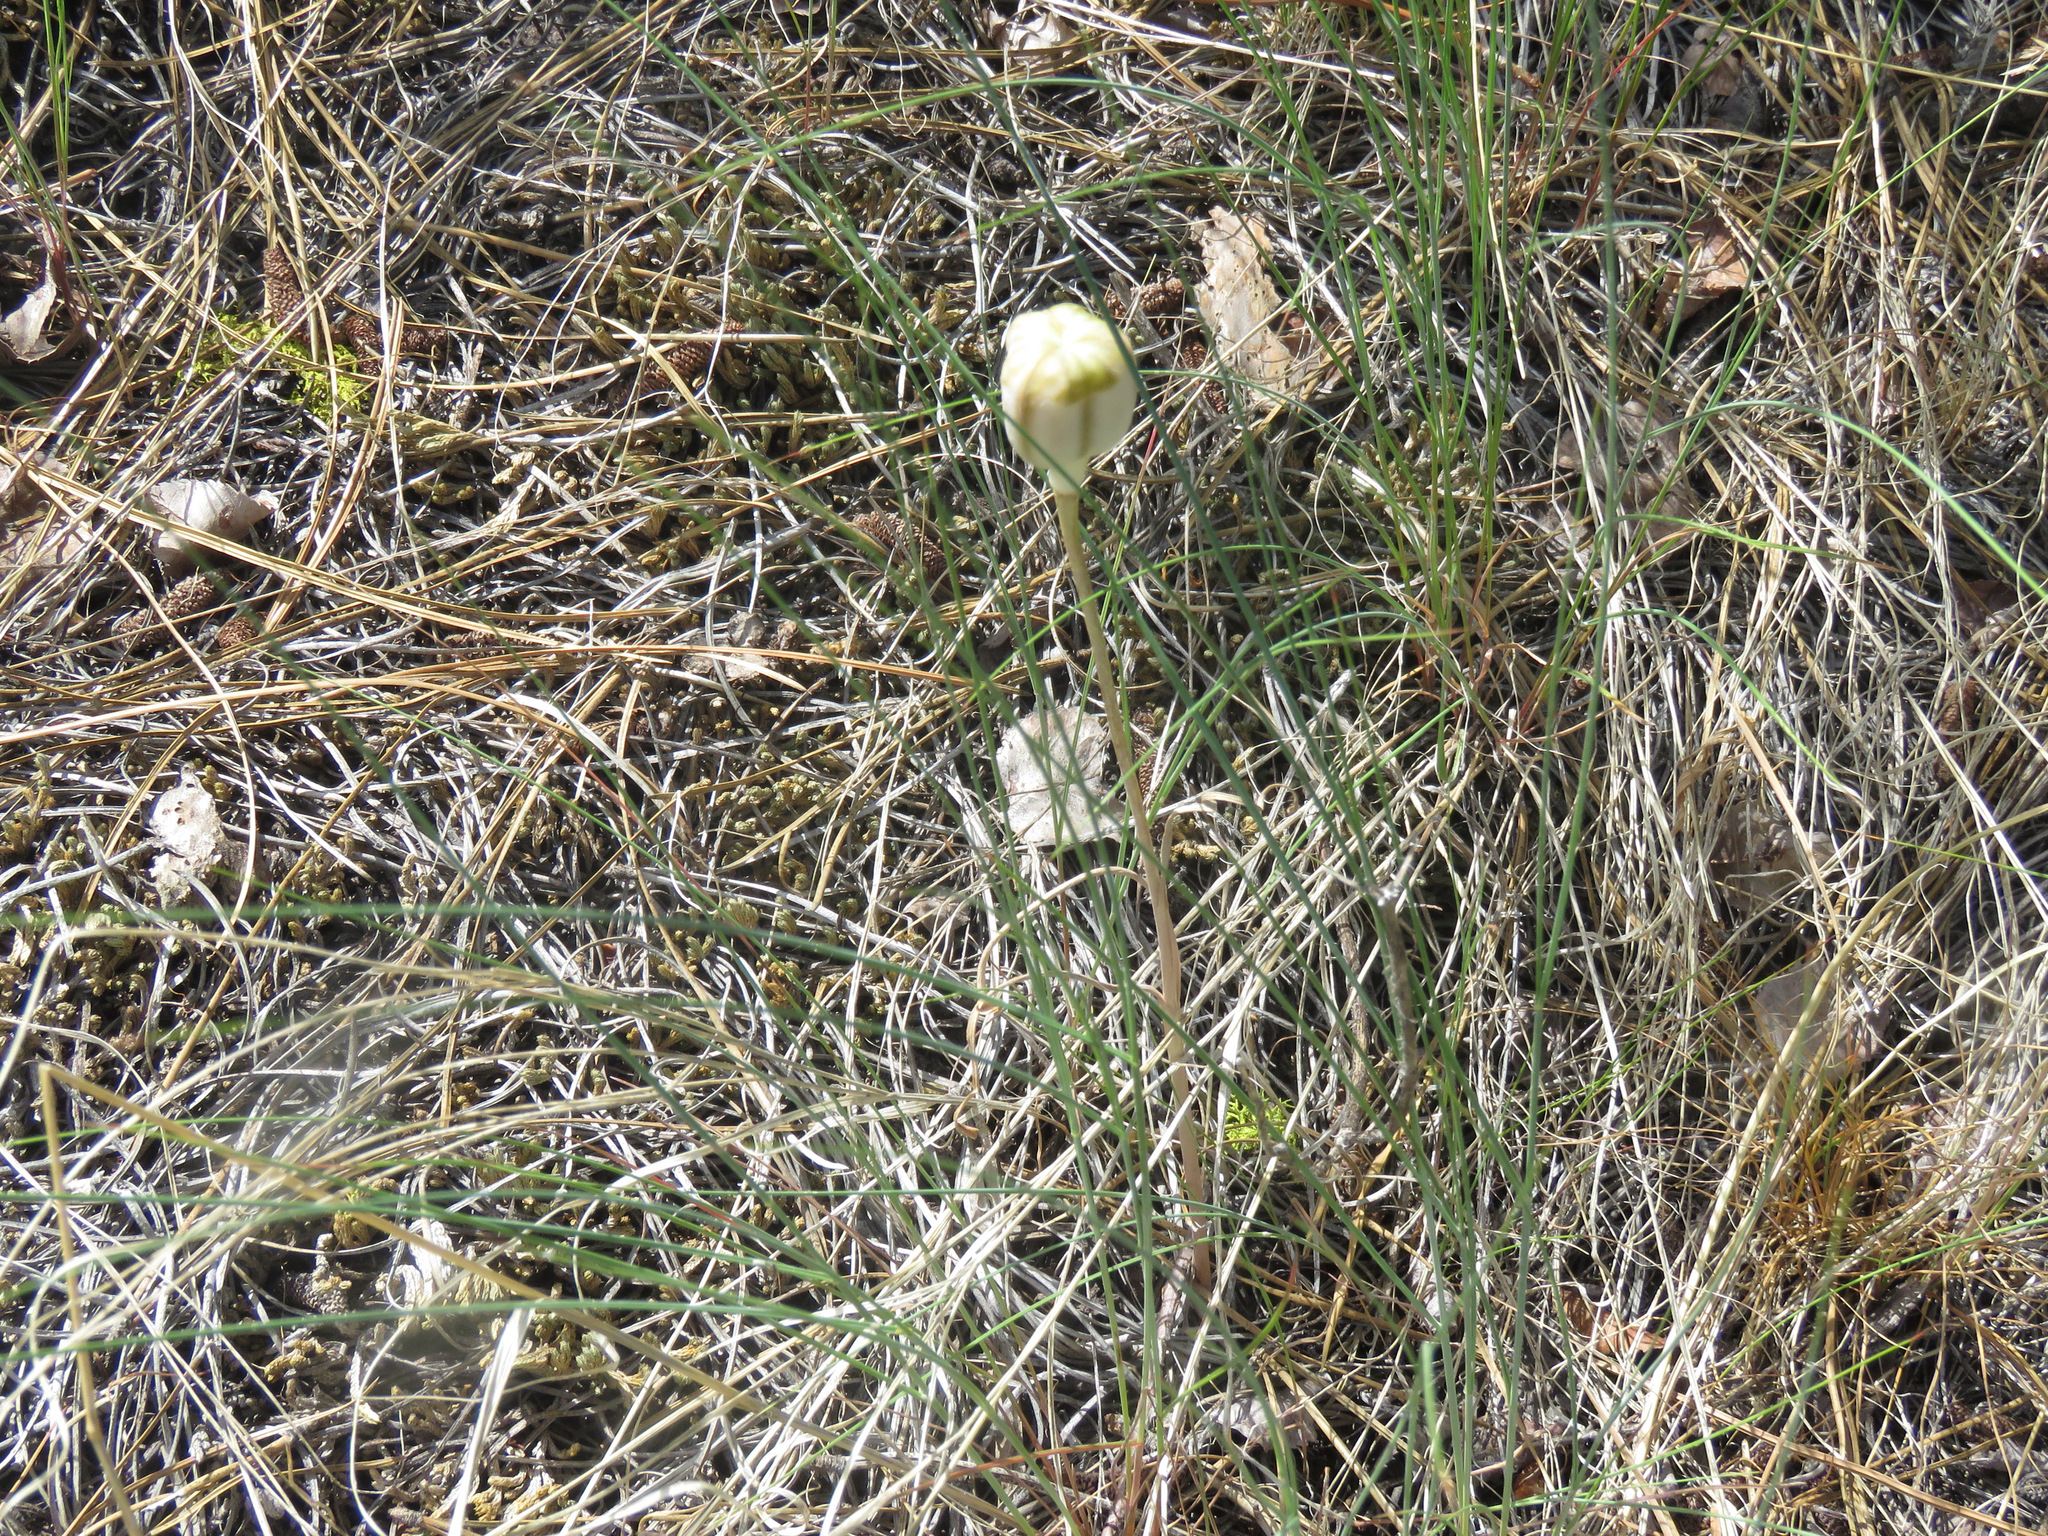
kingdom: Plantae
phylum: Tracheophyta
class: Liliopsida
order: Liliales
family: Liliaceae
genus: Fritillaria
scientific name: Fritillaria pudica
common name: Yellow fritillary
